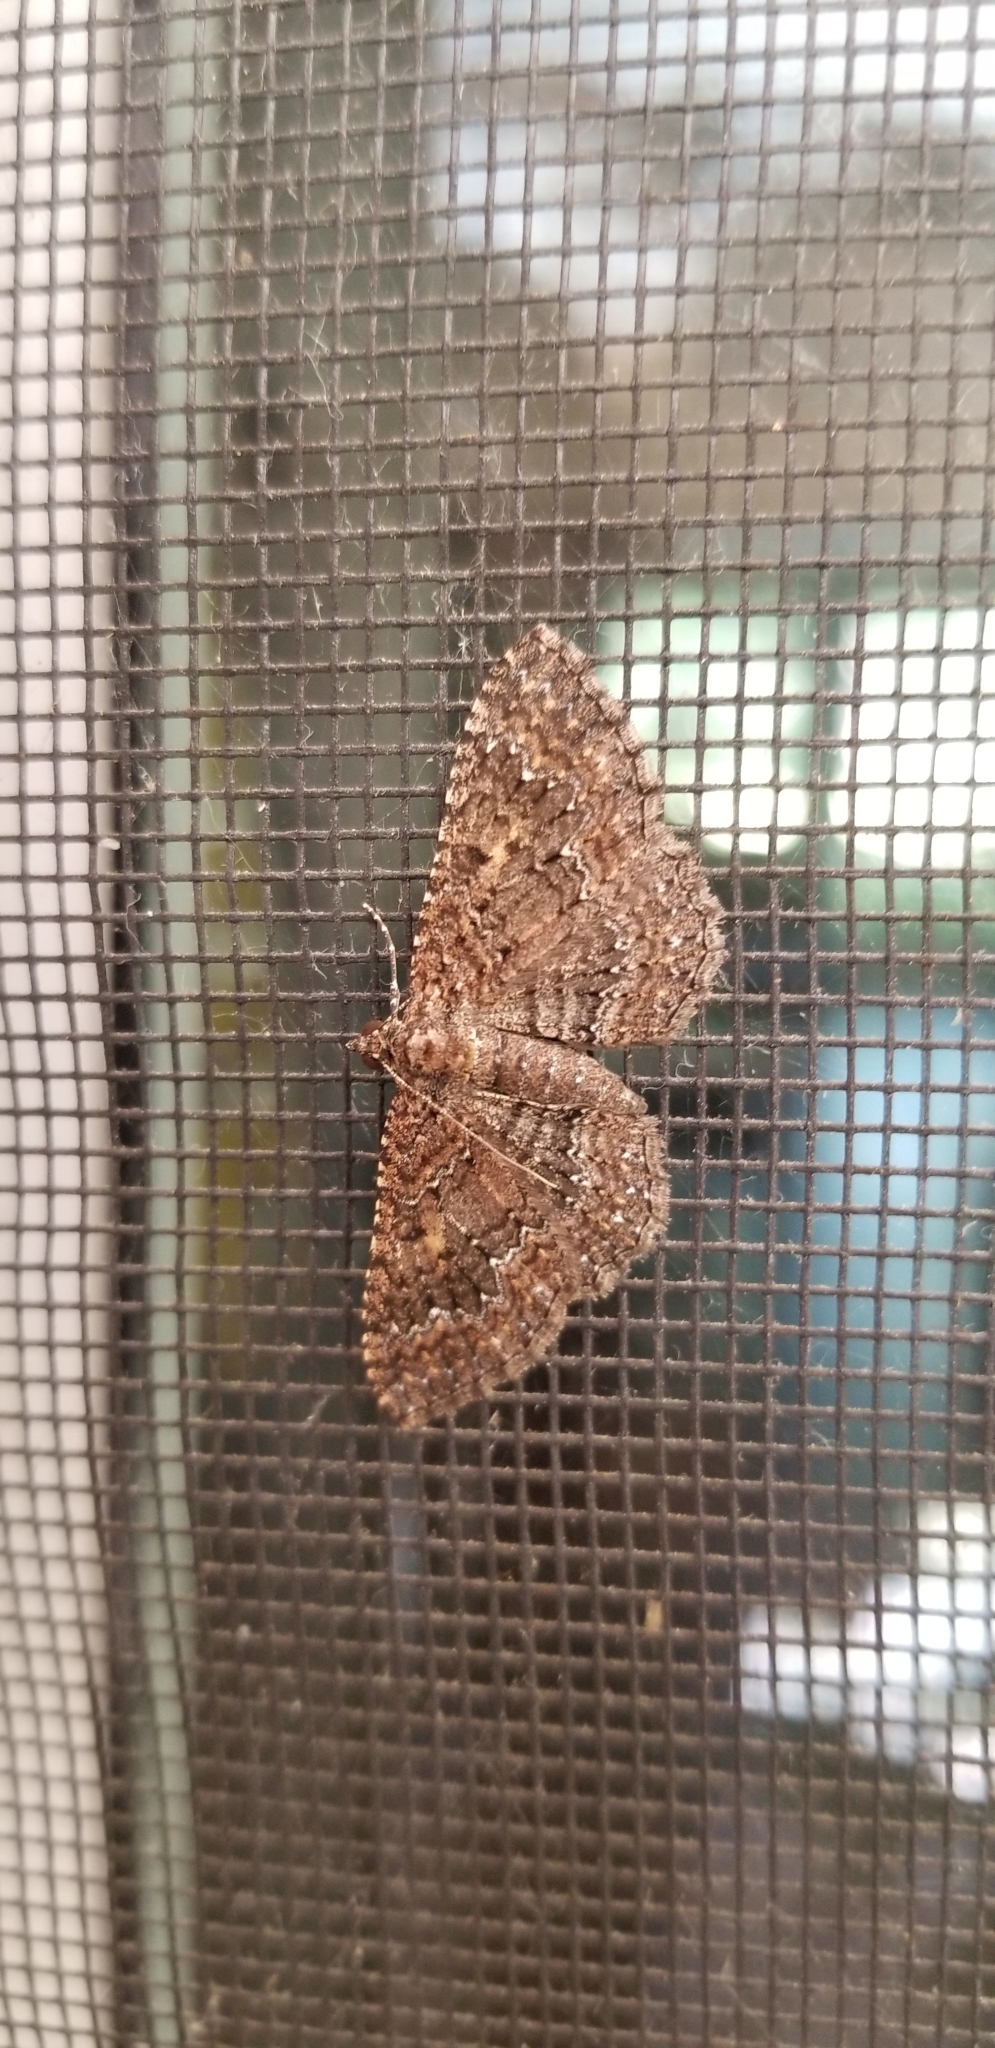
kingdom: Animalia
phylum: Arthropoda
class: Insecta
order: Lepidoptera
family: Geometridae
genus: Disclisioprocta
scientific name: Disclisioprocta stellata
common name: Somber carpet
